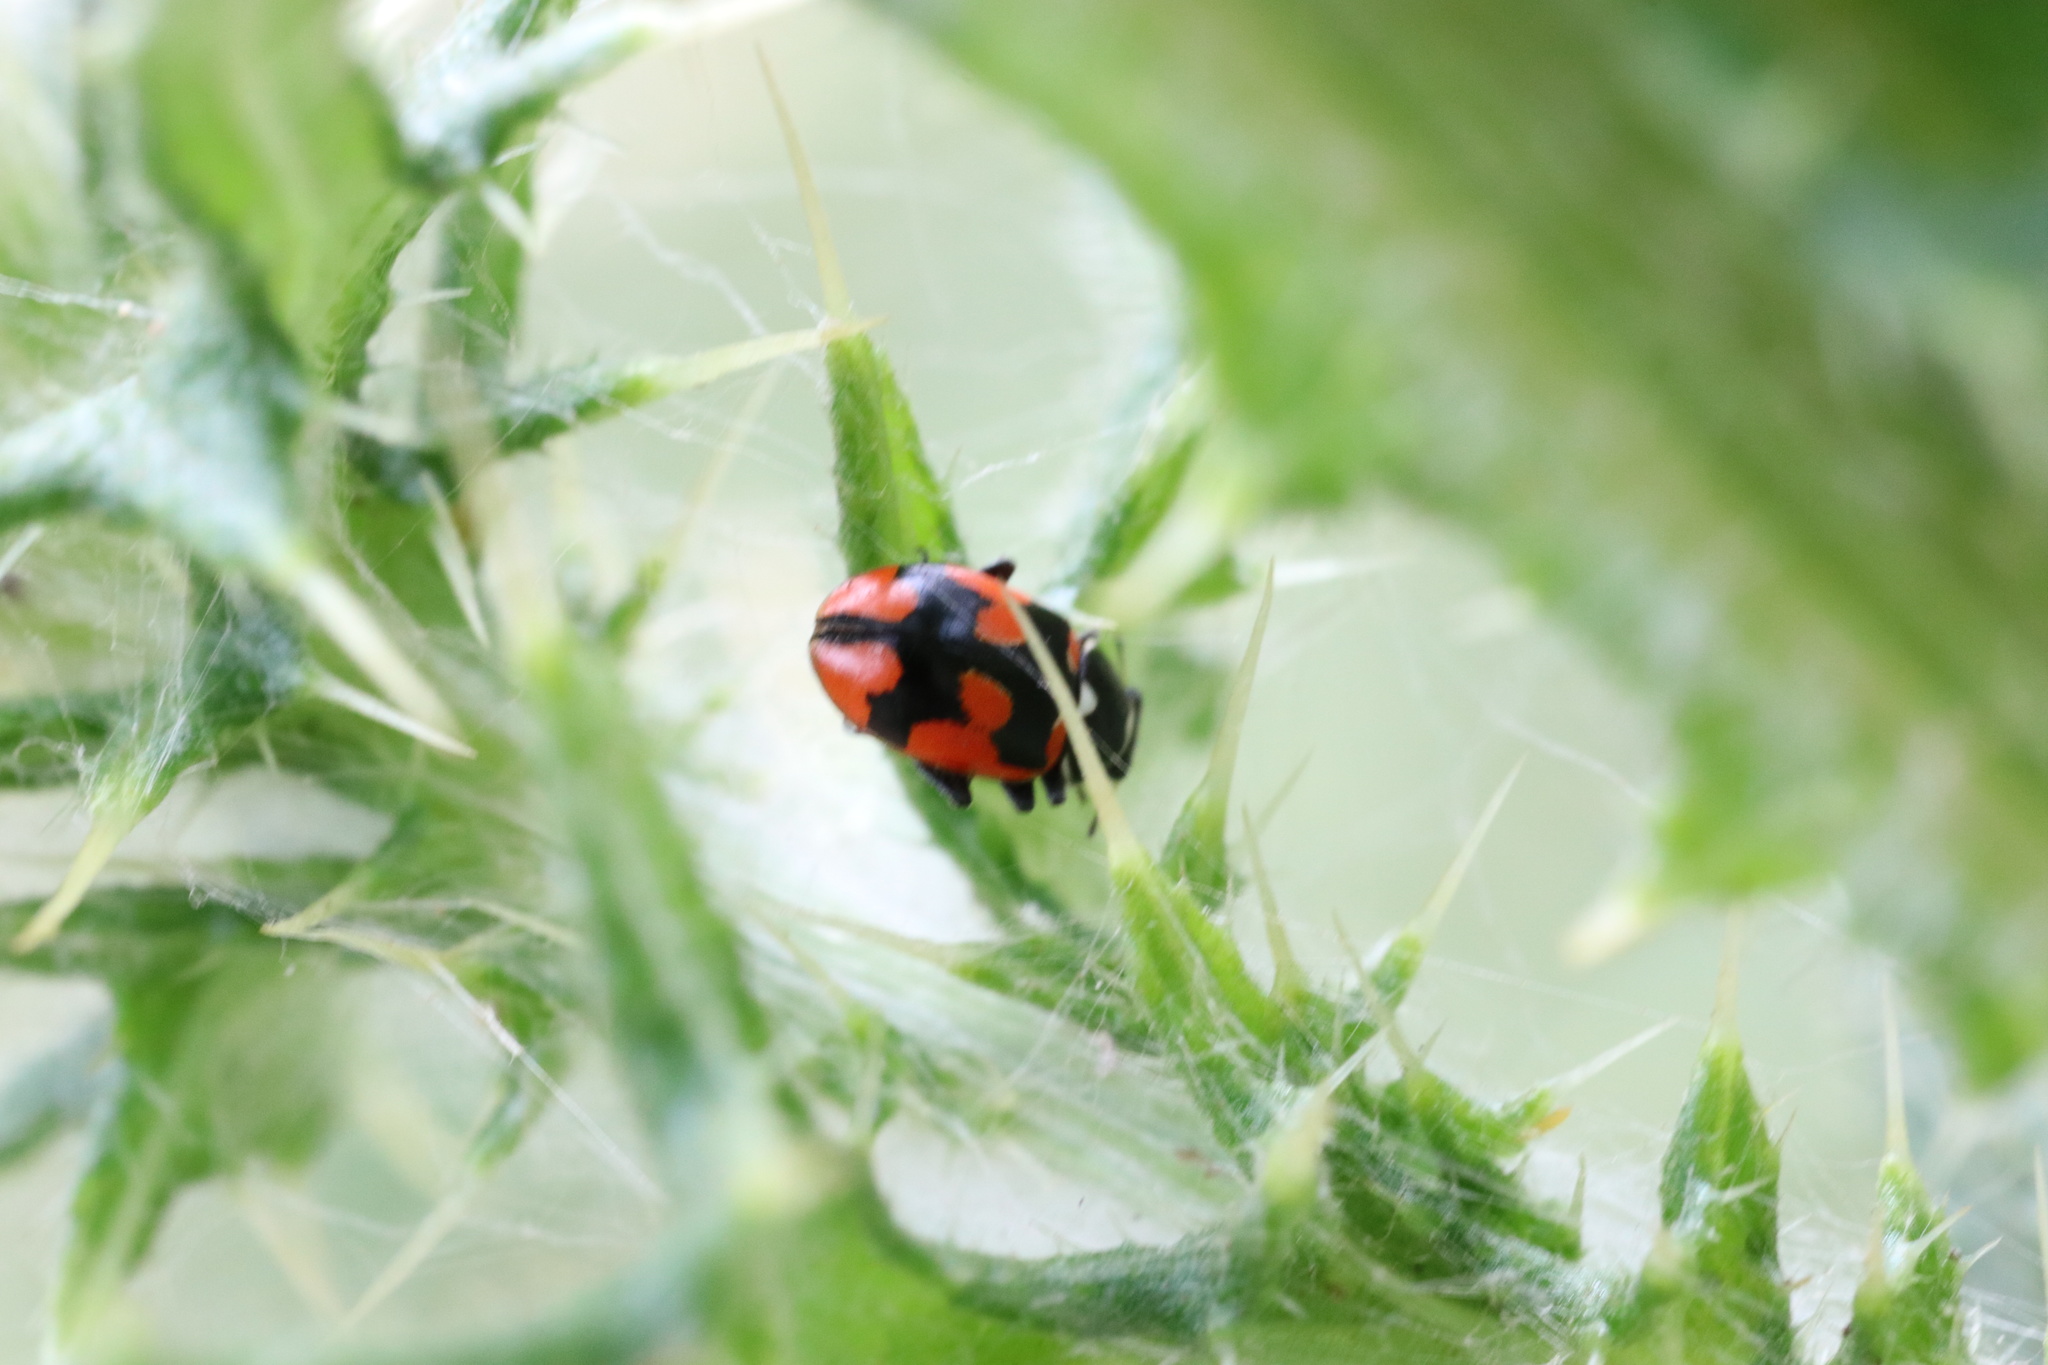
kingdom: Animalia
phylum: Arthropoda
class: Insecta
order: Coleoptera
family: Coccinellidae
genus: Eriopis
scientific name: Eriopis eschscholtzii
